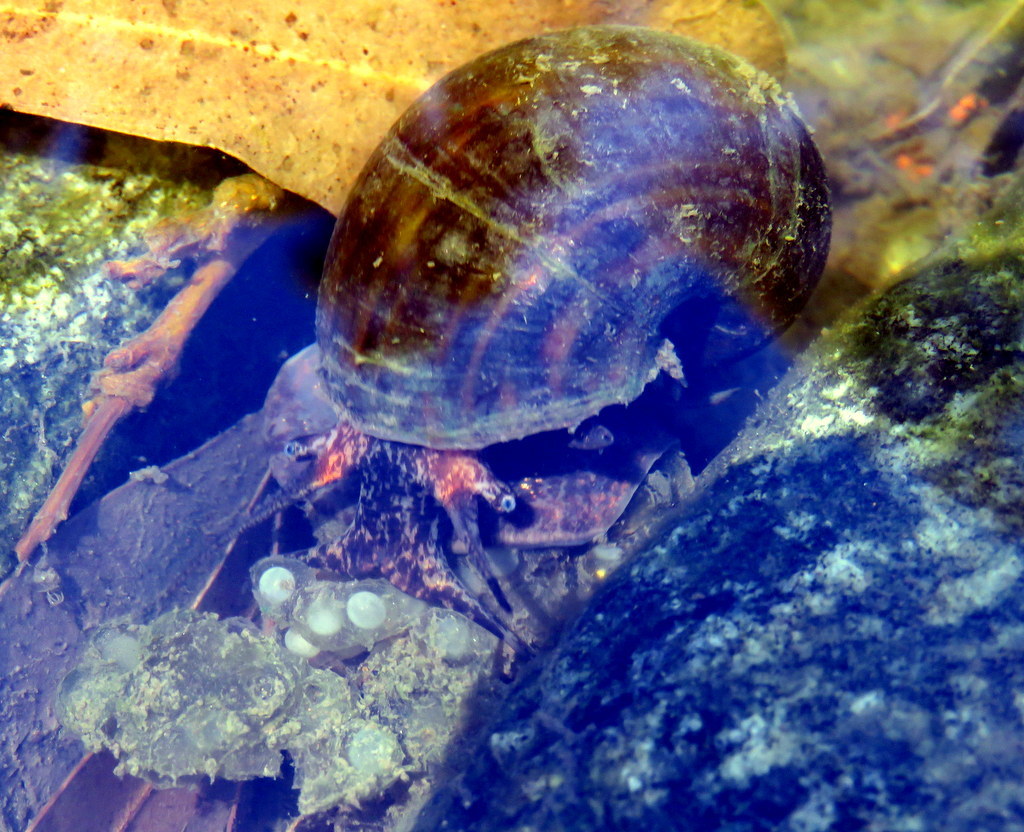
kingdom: Animalia
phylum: Mollusca
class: Gastropoda
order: Architaenioglossa
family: Ampullariidae
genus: Pomacea
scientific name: Pomacea canaliculata
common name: Channeled applesnail
